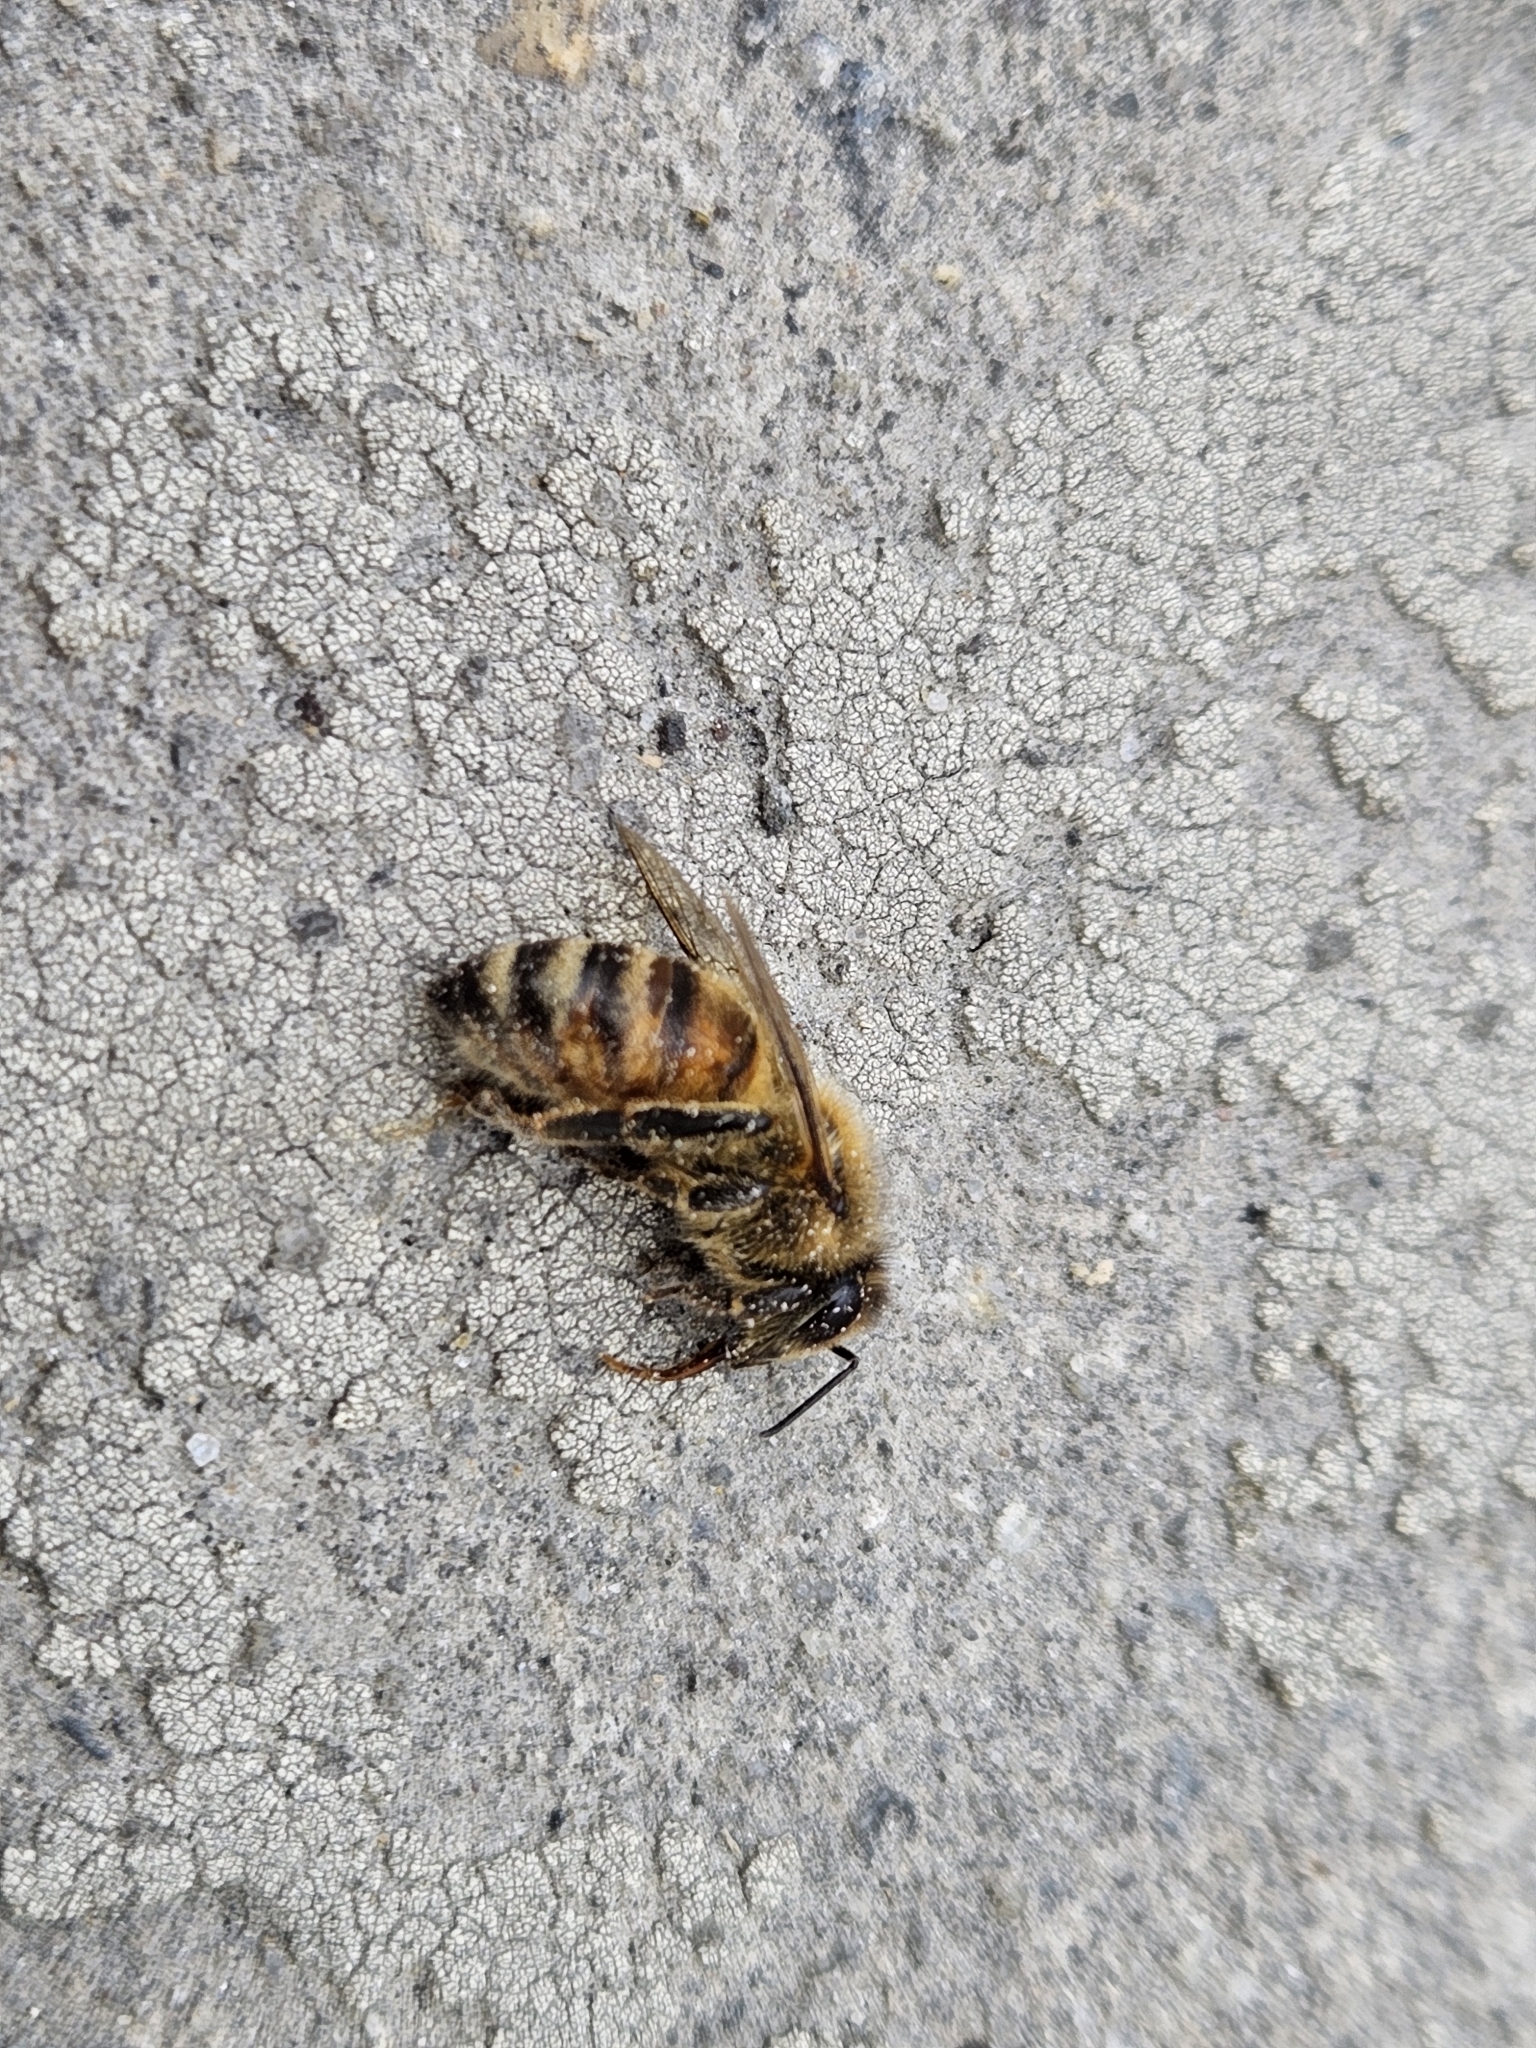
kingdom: Animalia
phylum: Arthropoda
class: Insecta
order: Hymenoptera
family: Apidae
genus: Apis
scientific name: Apis mellifera
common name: Honey bee
